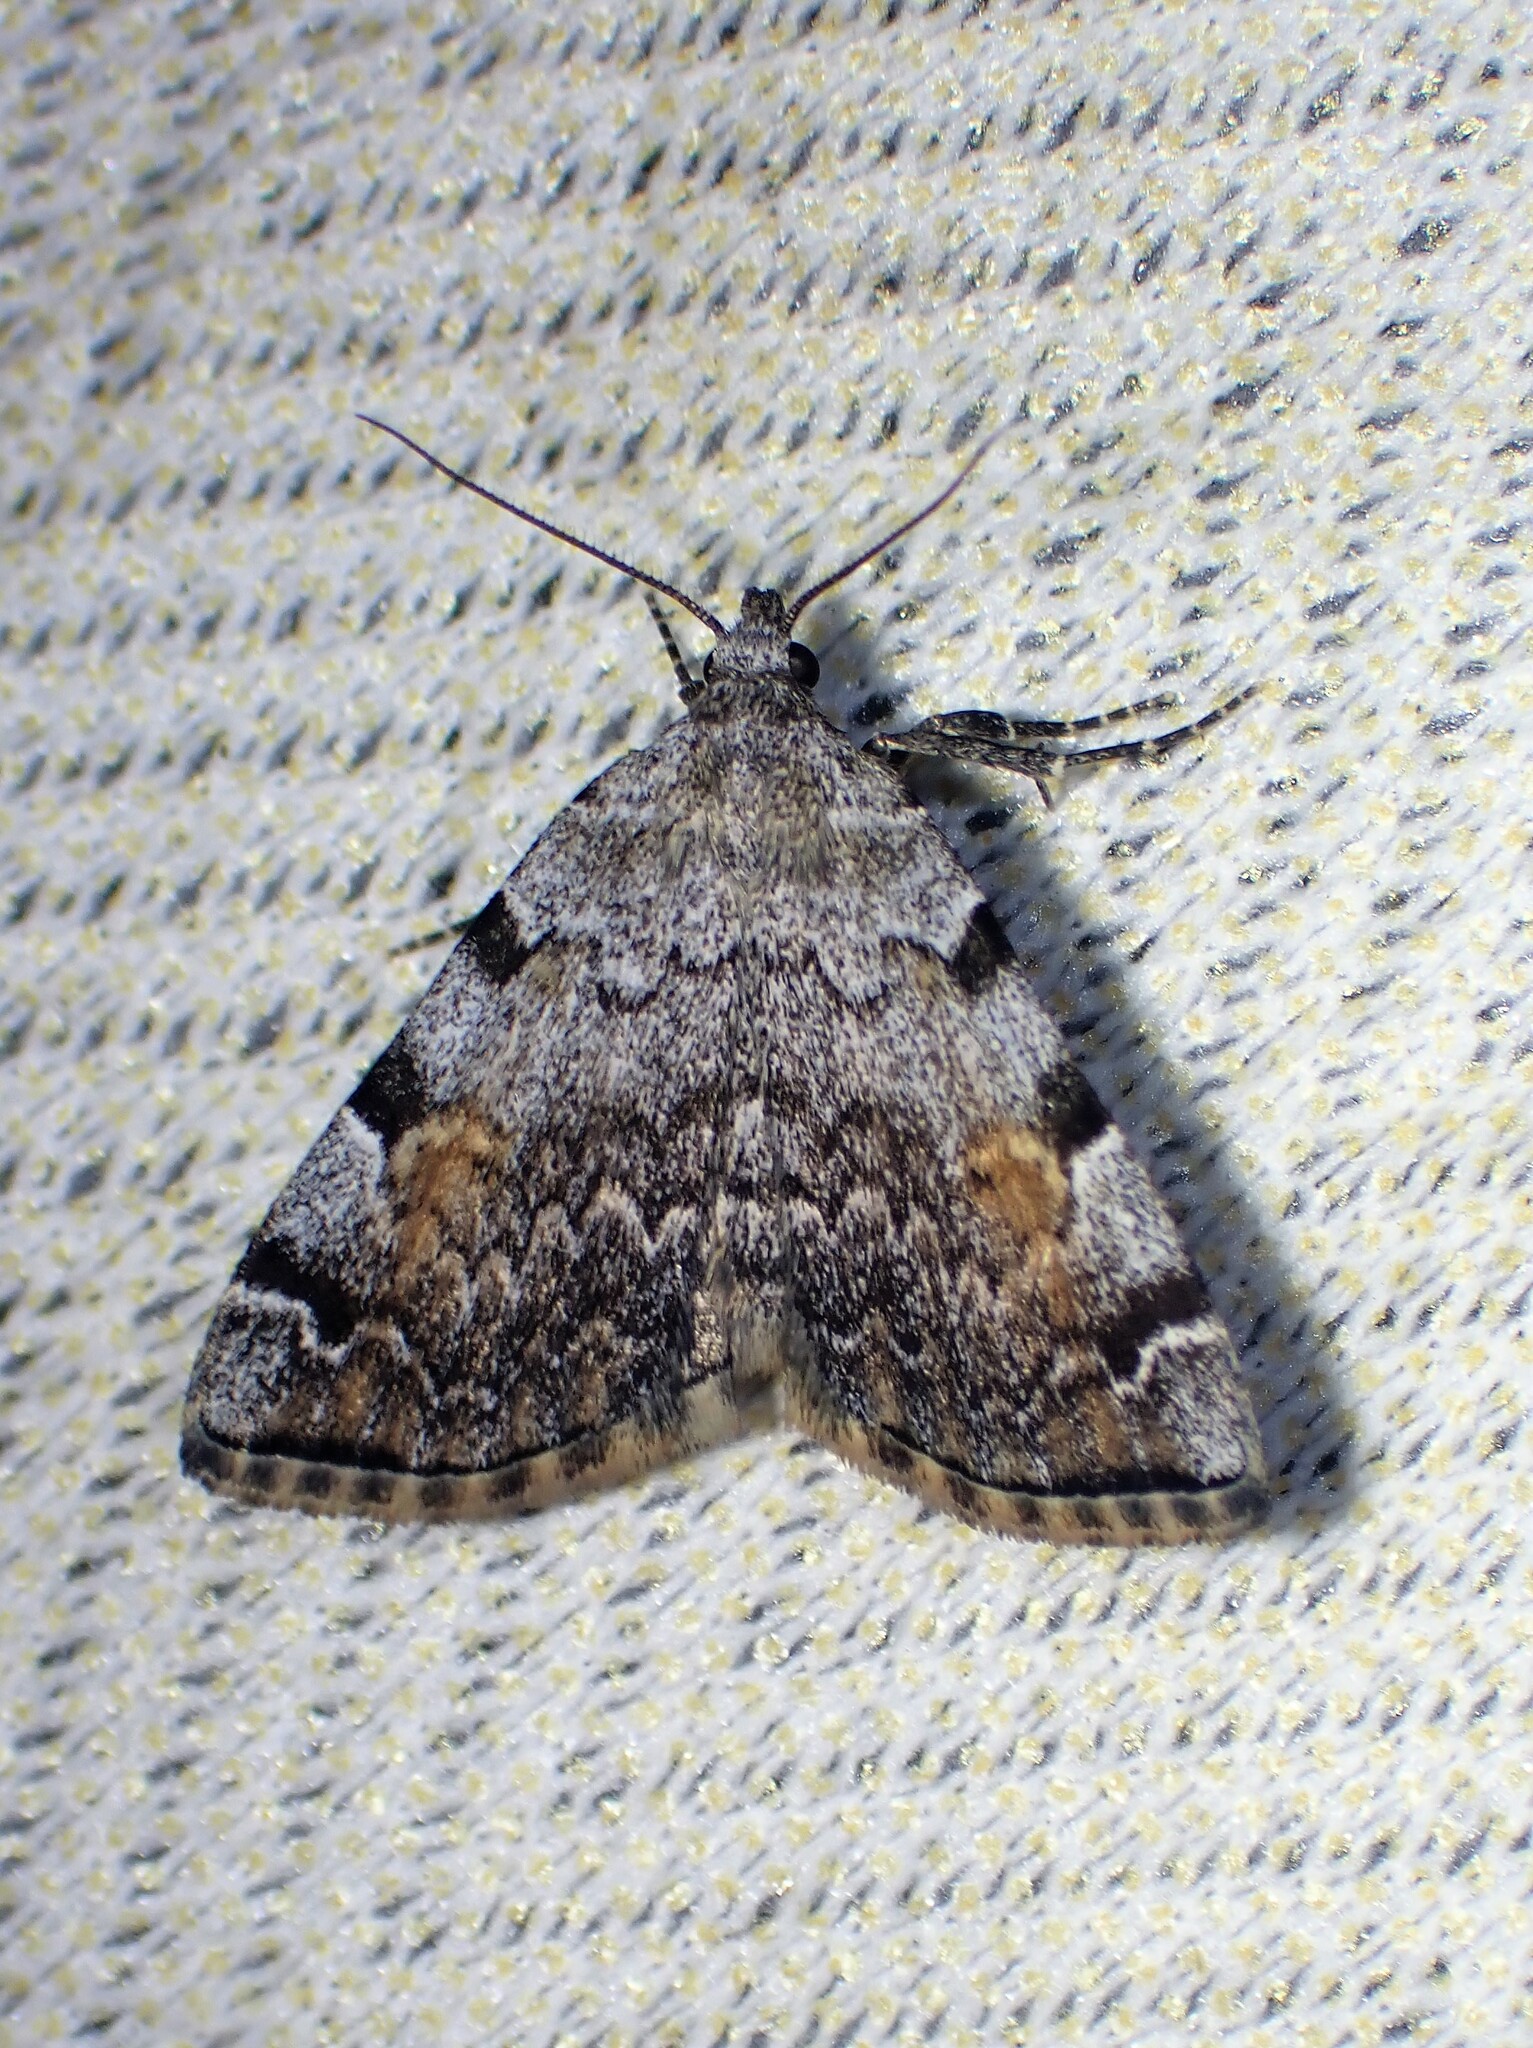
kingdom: Animalia
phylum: Arthropoda
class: Insecta
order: Lepidoptera
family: Erebidae
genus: Idia
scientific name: Idia americalis
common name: American idia moth
